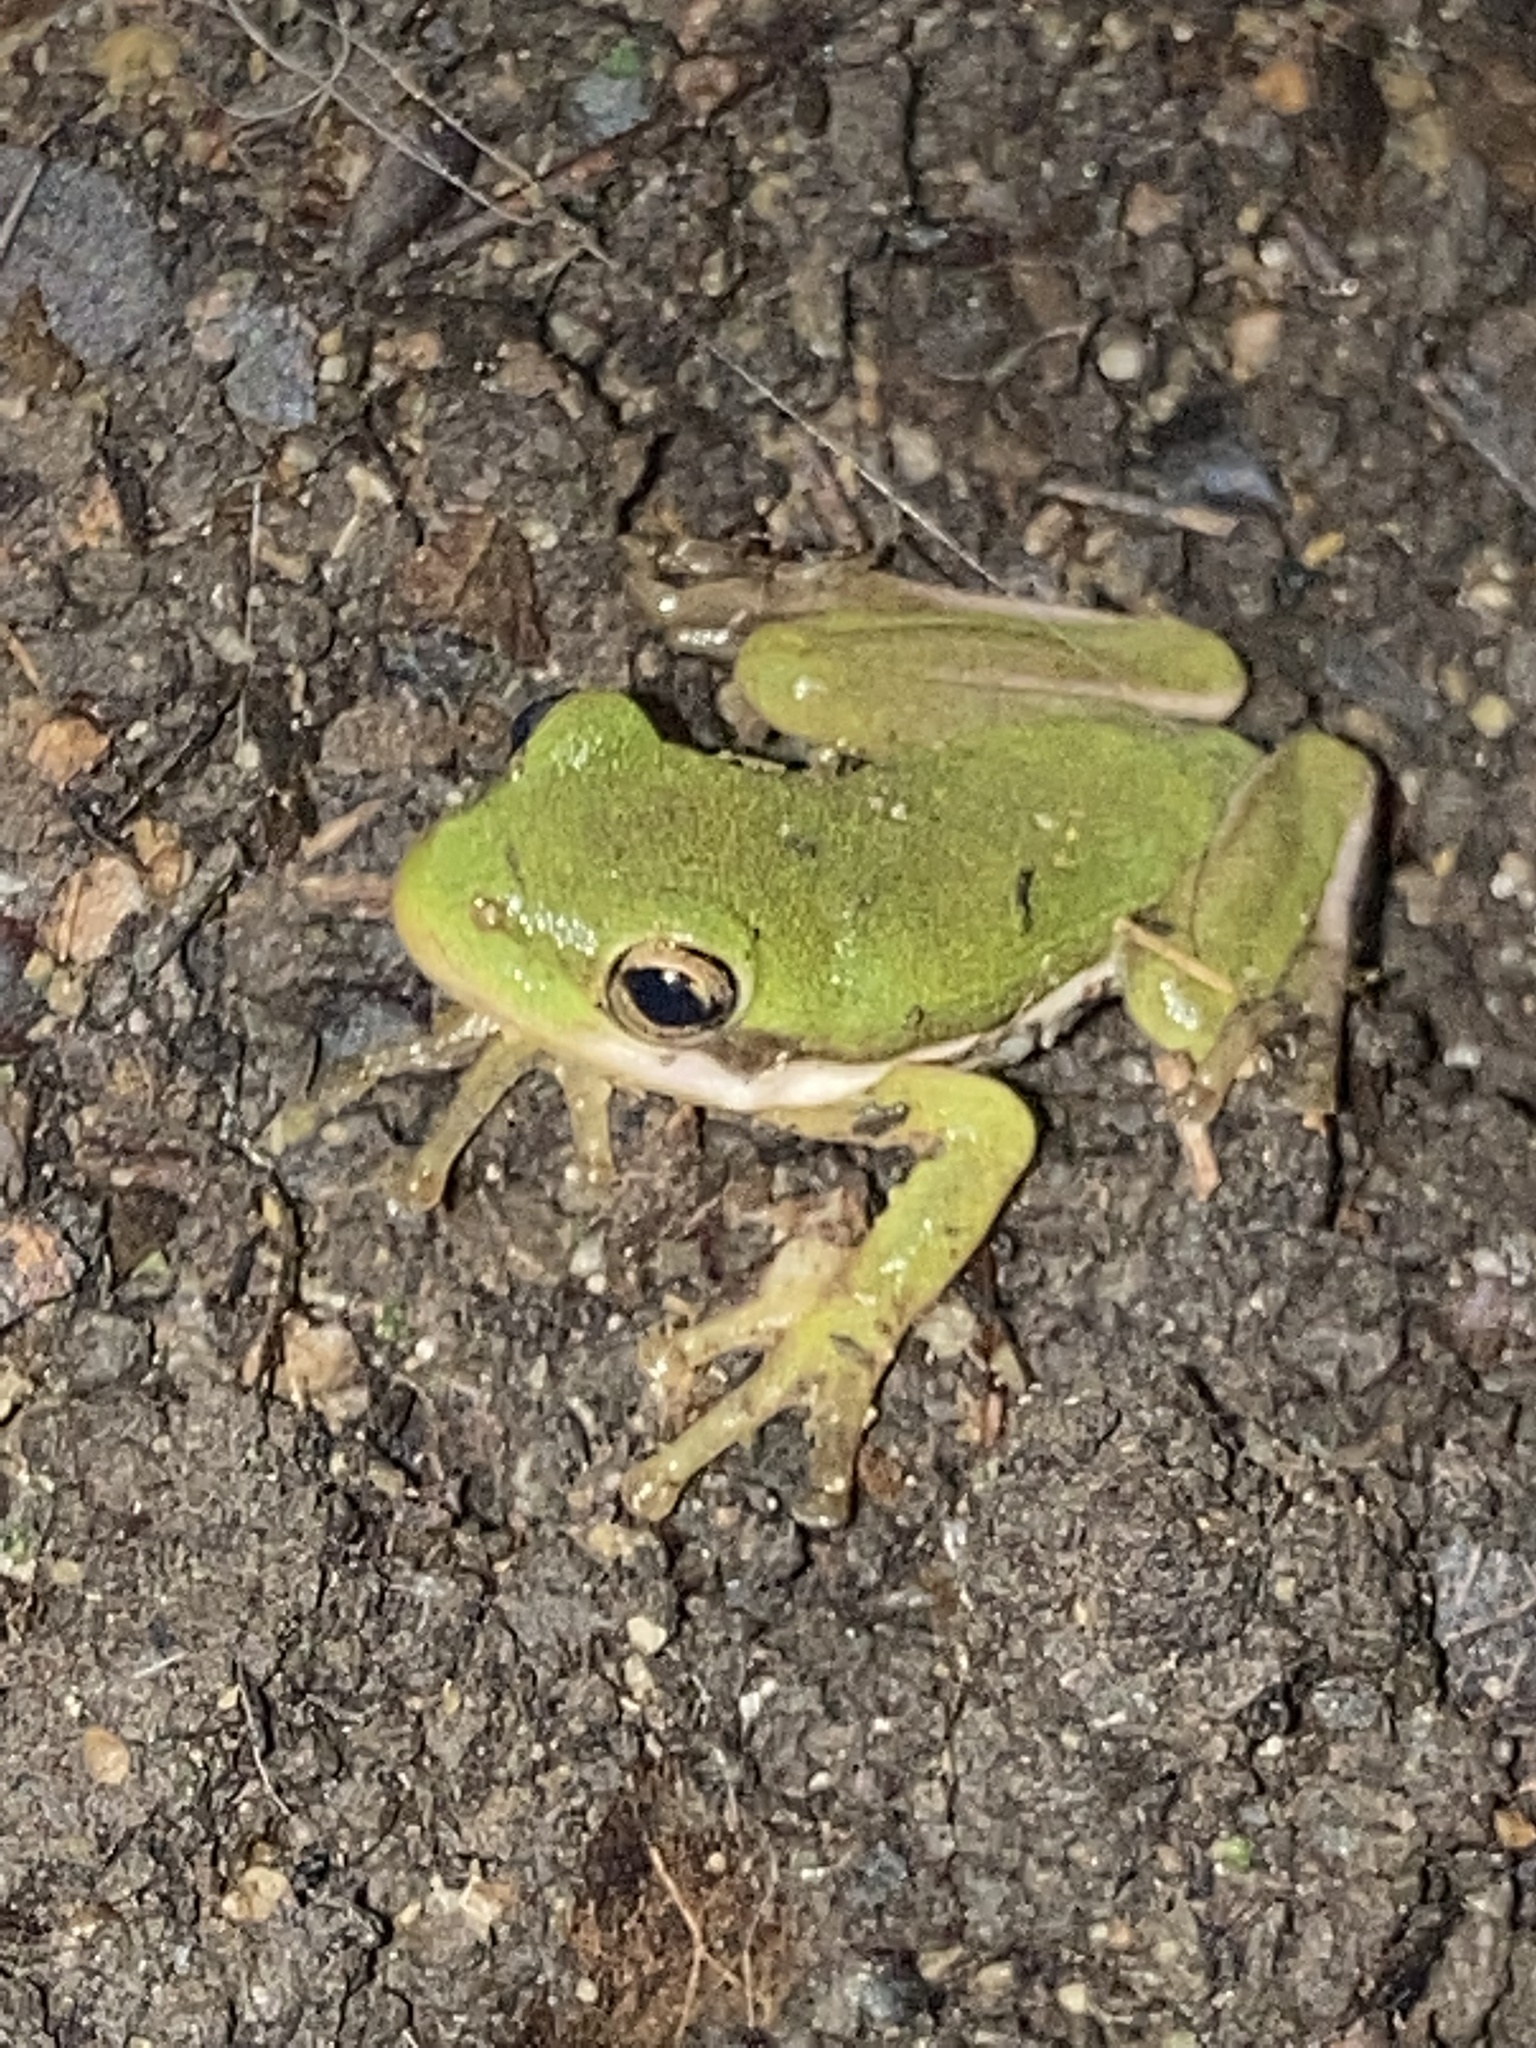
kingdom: Animalia
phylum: Chordata
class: Amphibia
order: Anura
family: Hylidae
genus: Dryophytes
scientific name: Dryophytes cinereus
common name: Green treefrog
